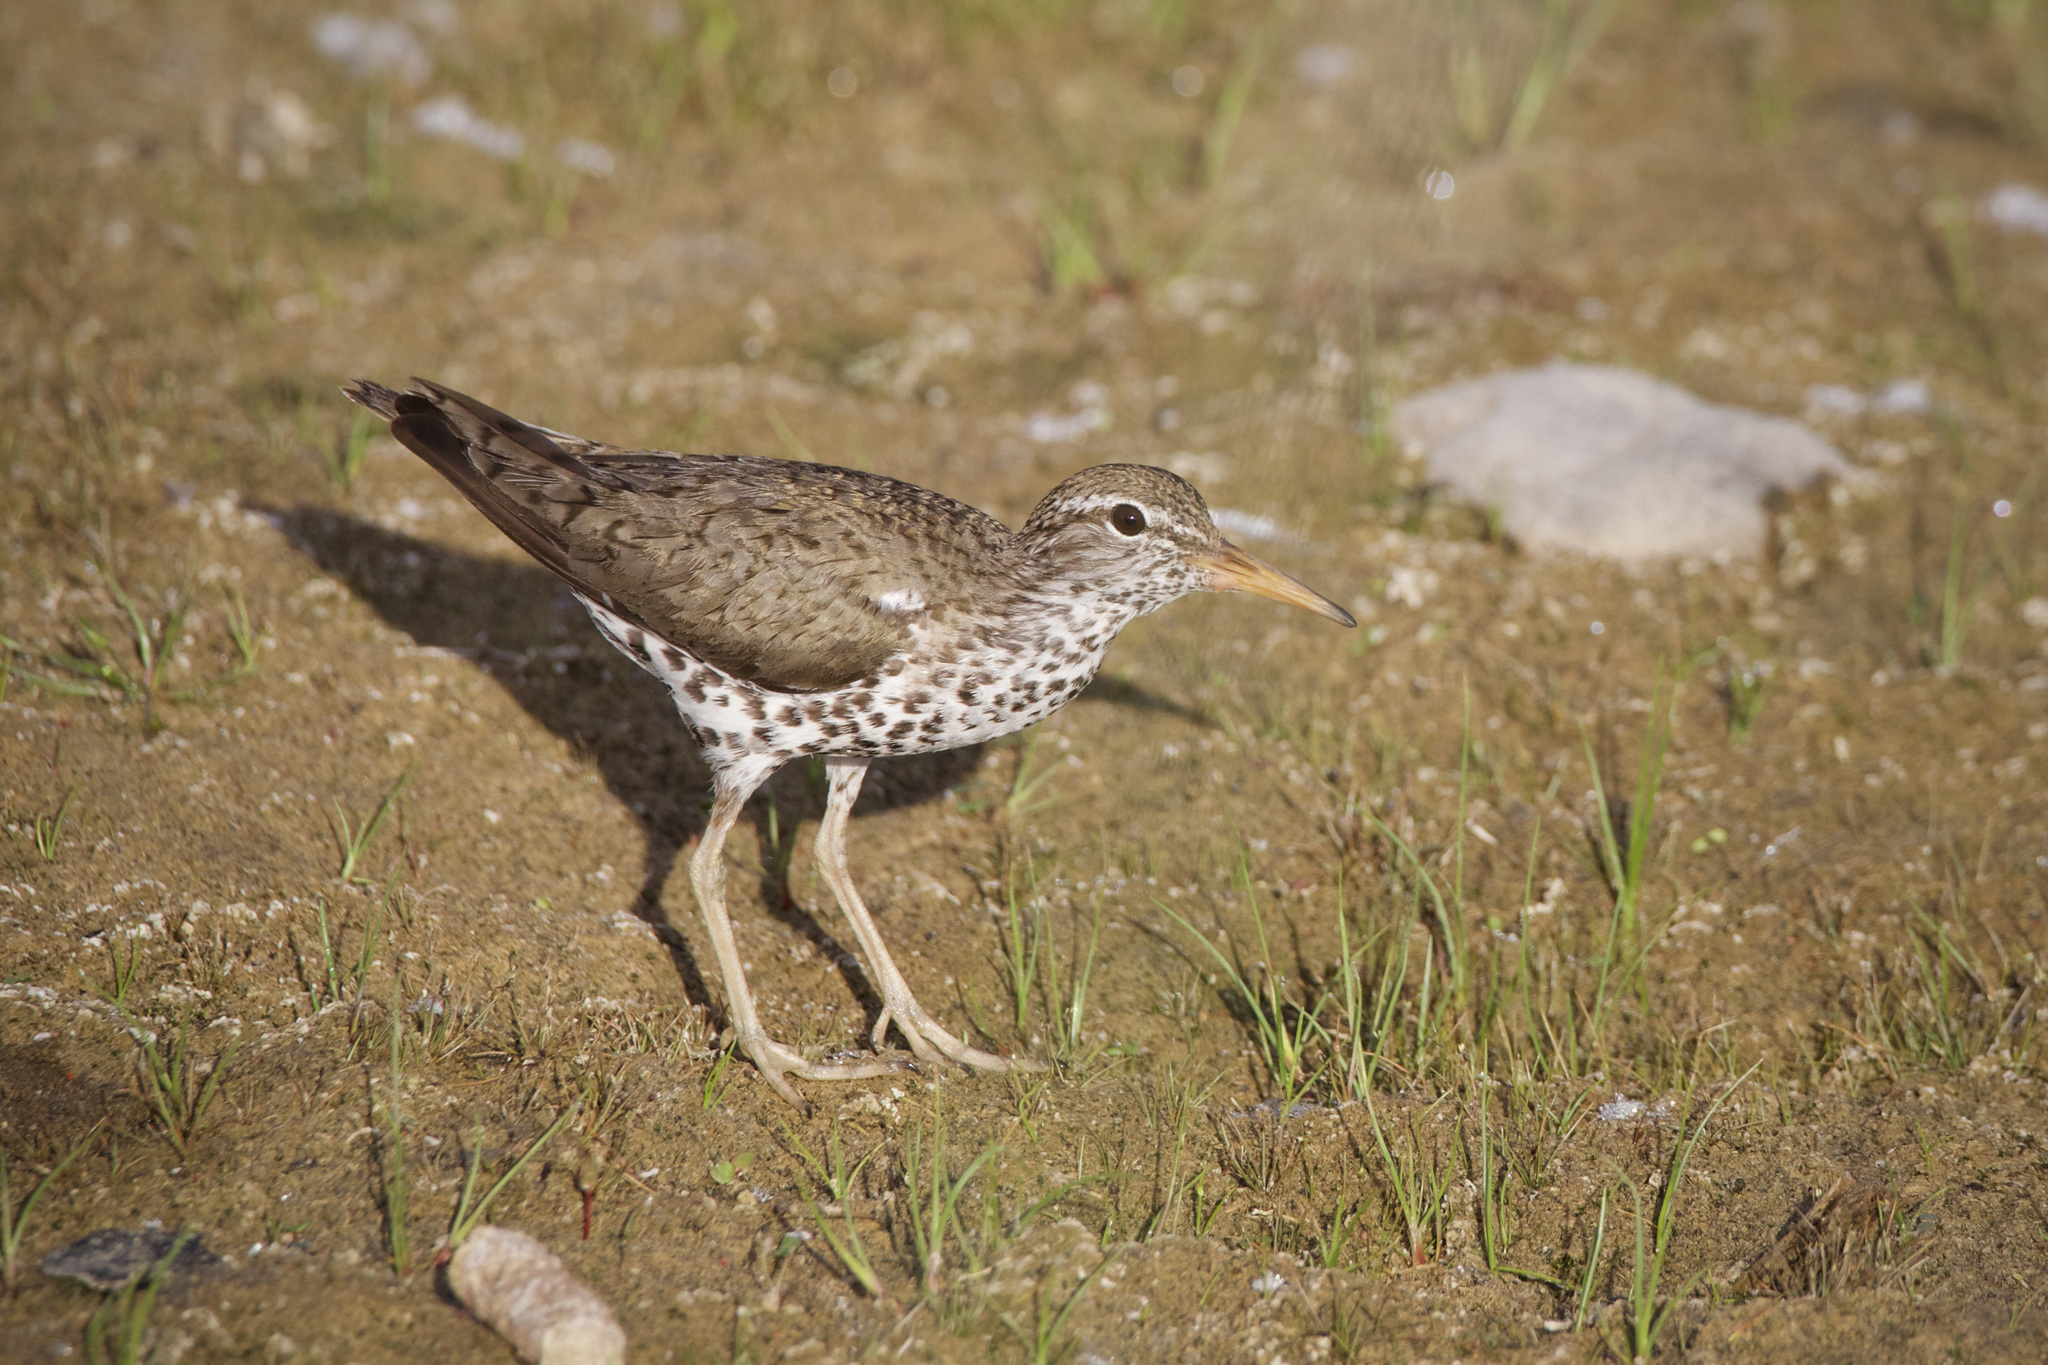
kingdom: Animalia
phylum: Chordata
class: Aves
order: Charadriiformes
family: Scolopacidae
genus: Actitis
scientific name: Actitis macularius
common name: Spotted sandpiper
